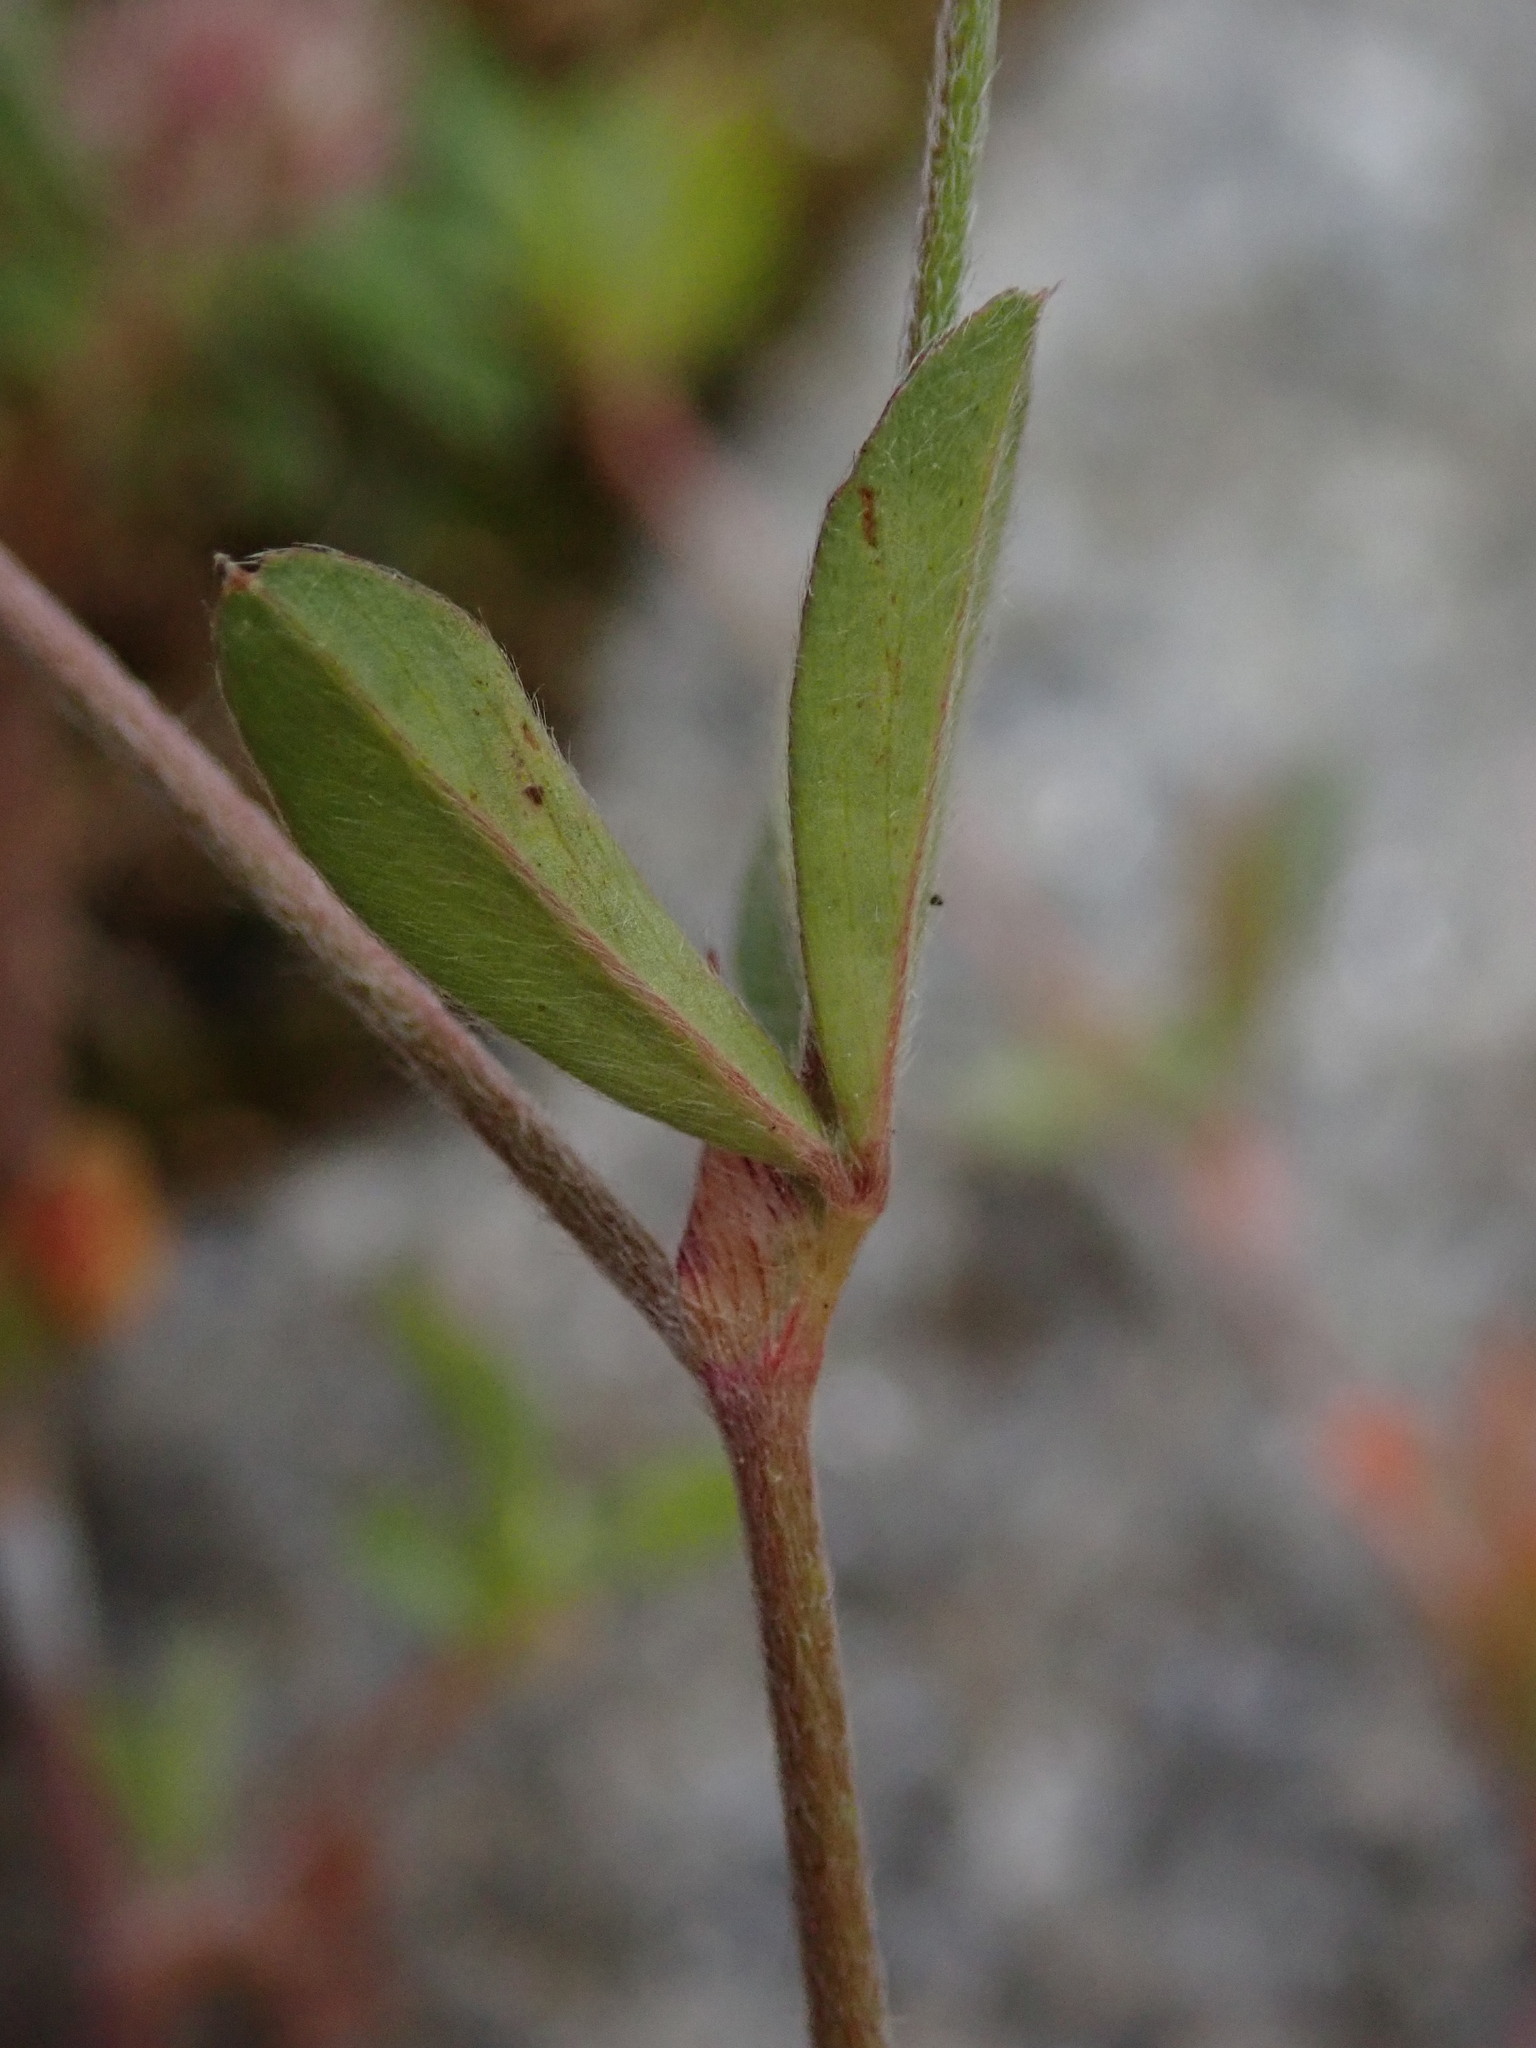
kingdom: Plantae
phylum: Tracheophyta
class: Magnoliopsida
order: Fabales
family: Fabaceae
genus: Trifolium
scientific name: Trifolium arvense
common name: Hare's-foot clover
